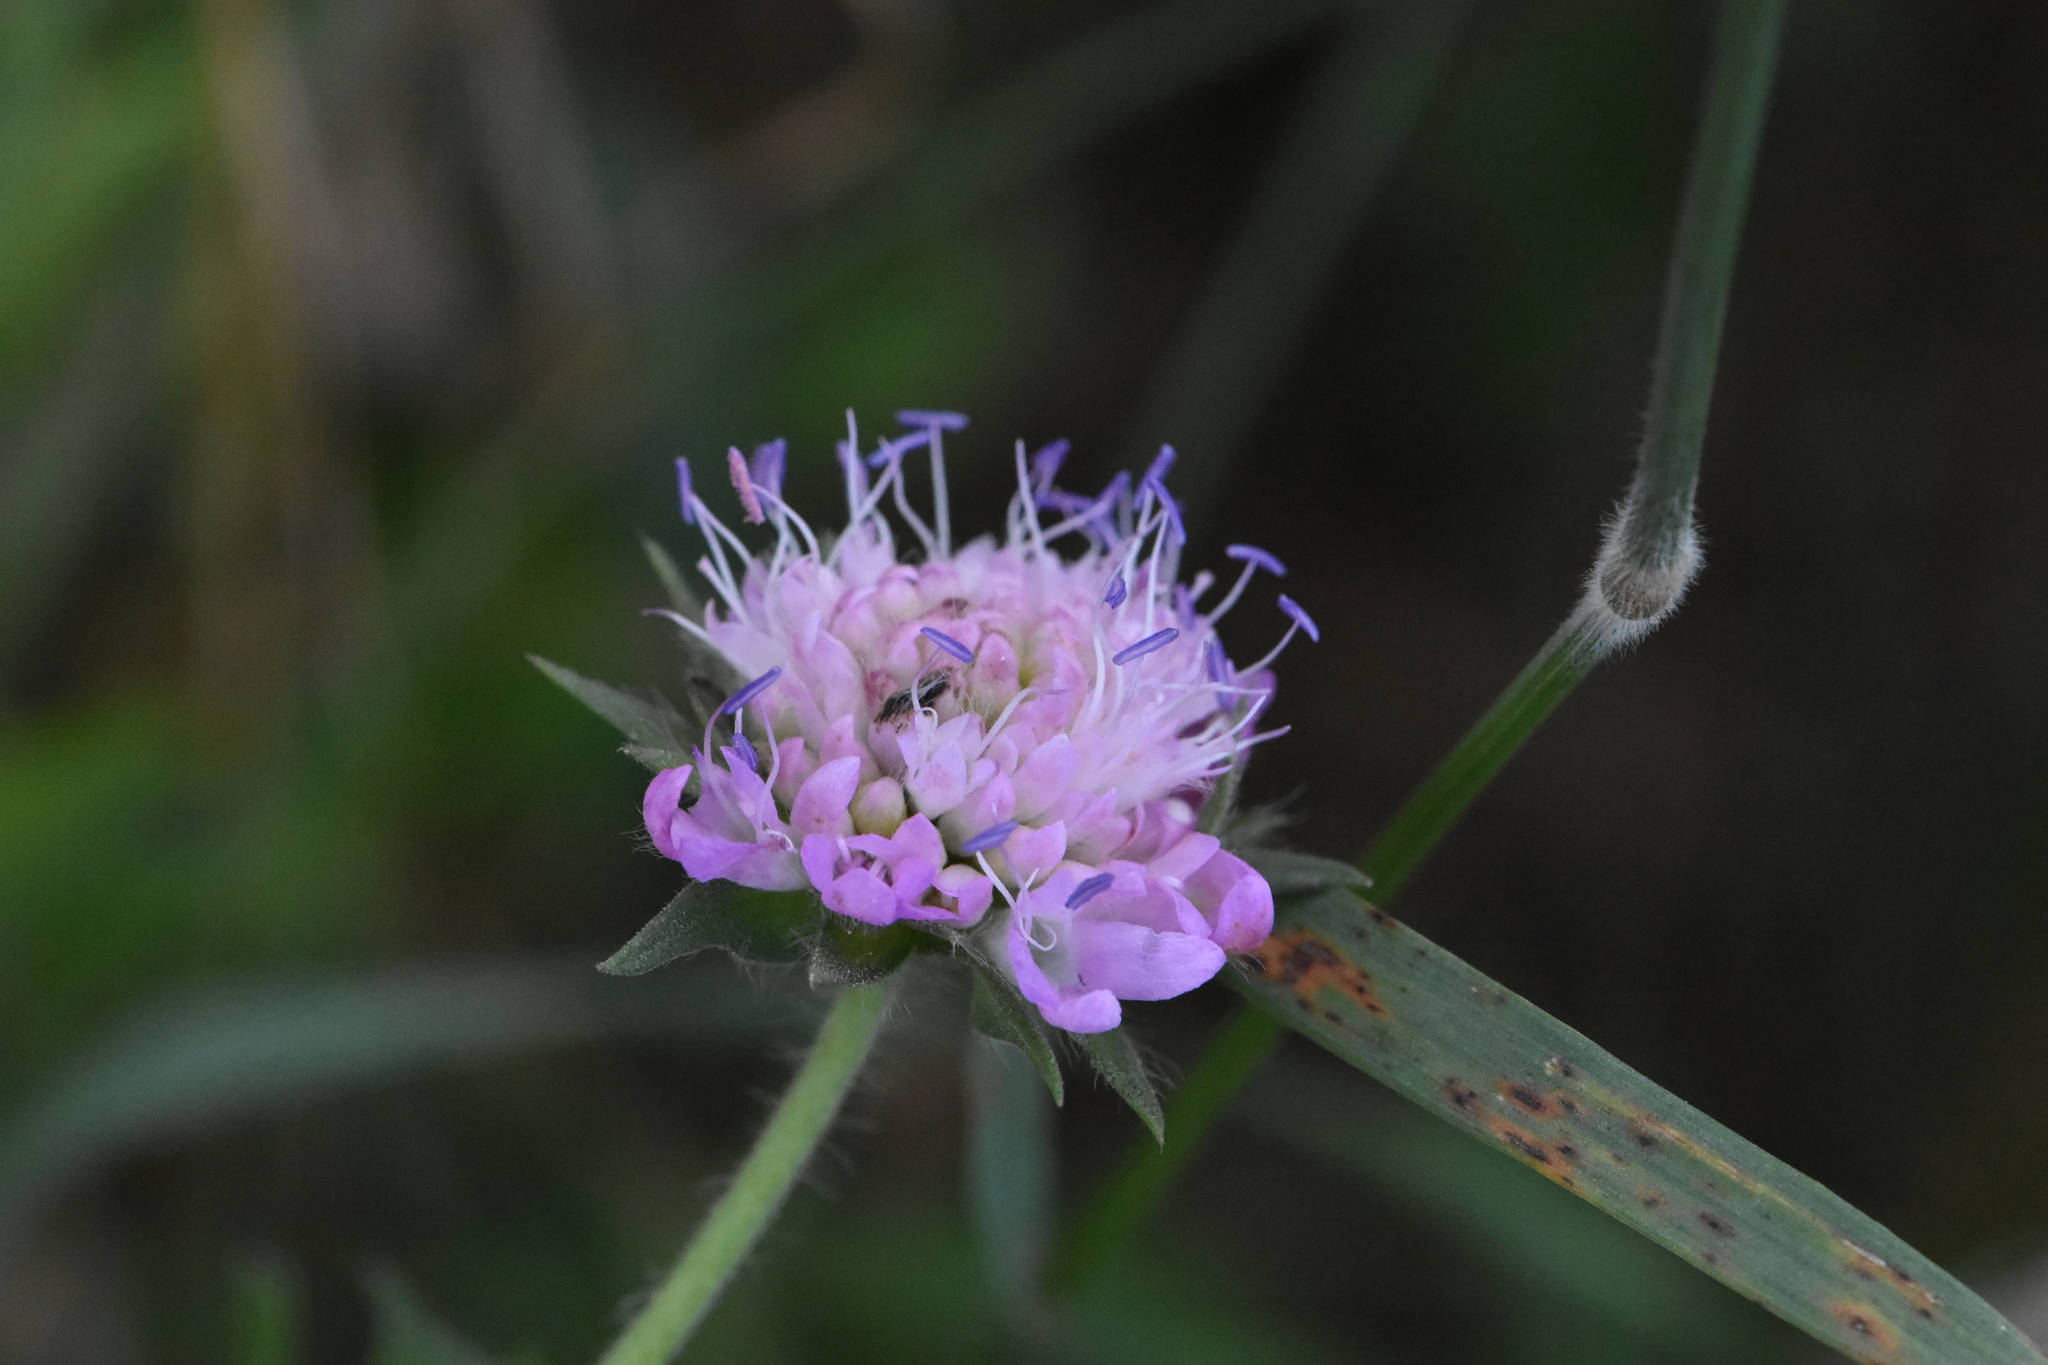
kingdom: Plantae
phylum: Tracheophyta
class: Magnoliopsida
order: Dipsacales
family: Caprifoliaceae
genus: Knautia
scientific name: Knautia arvensis
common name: Field scabiosa
